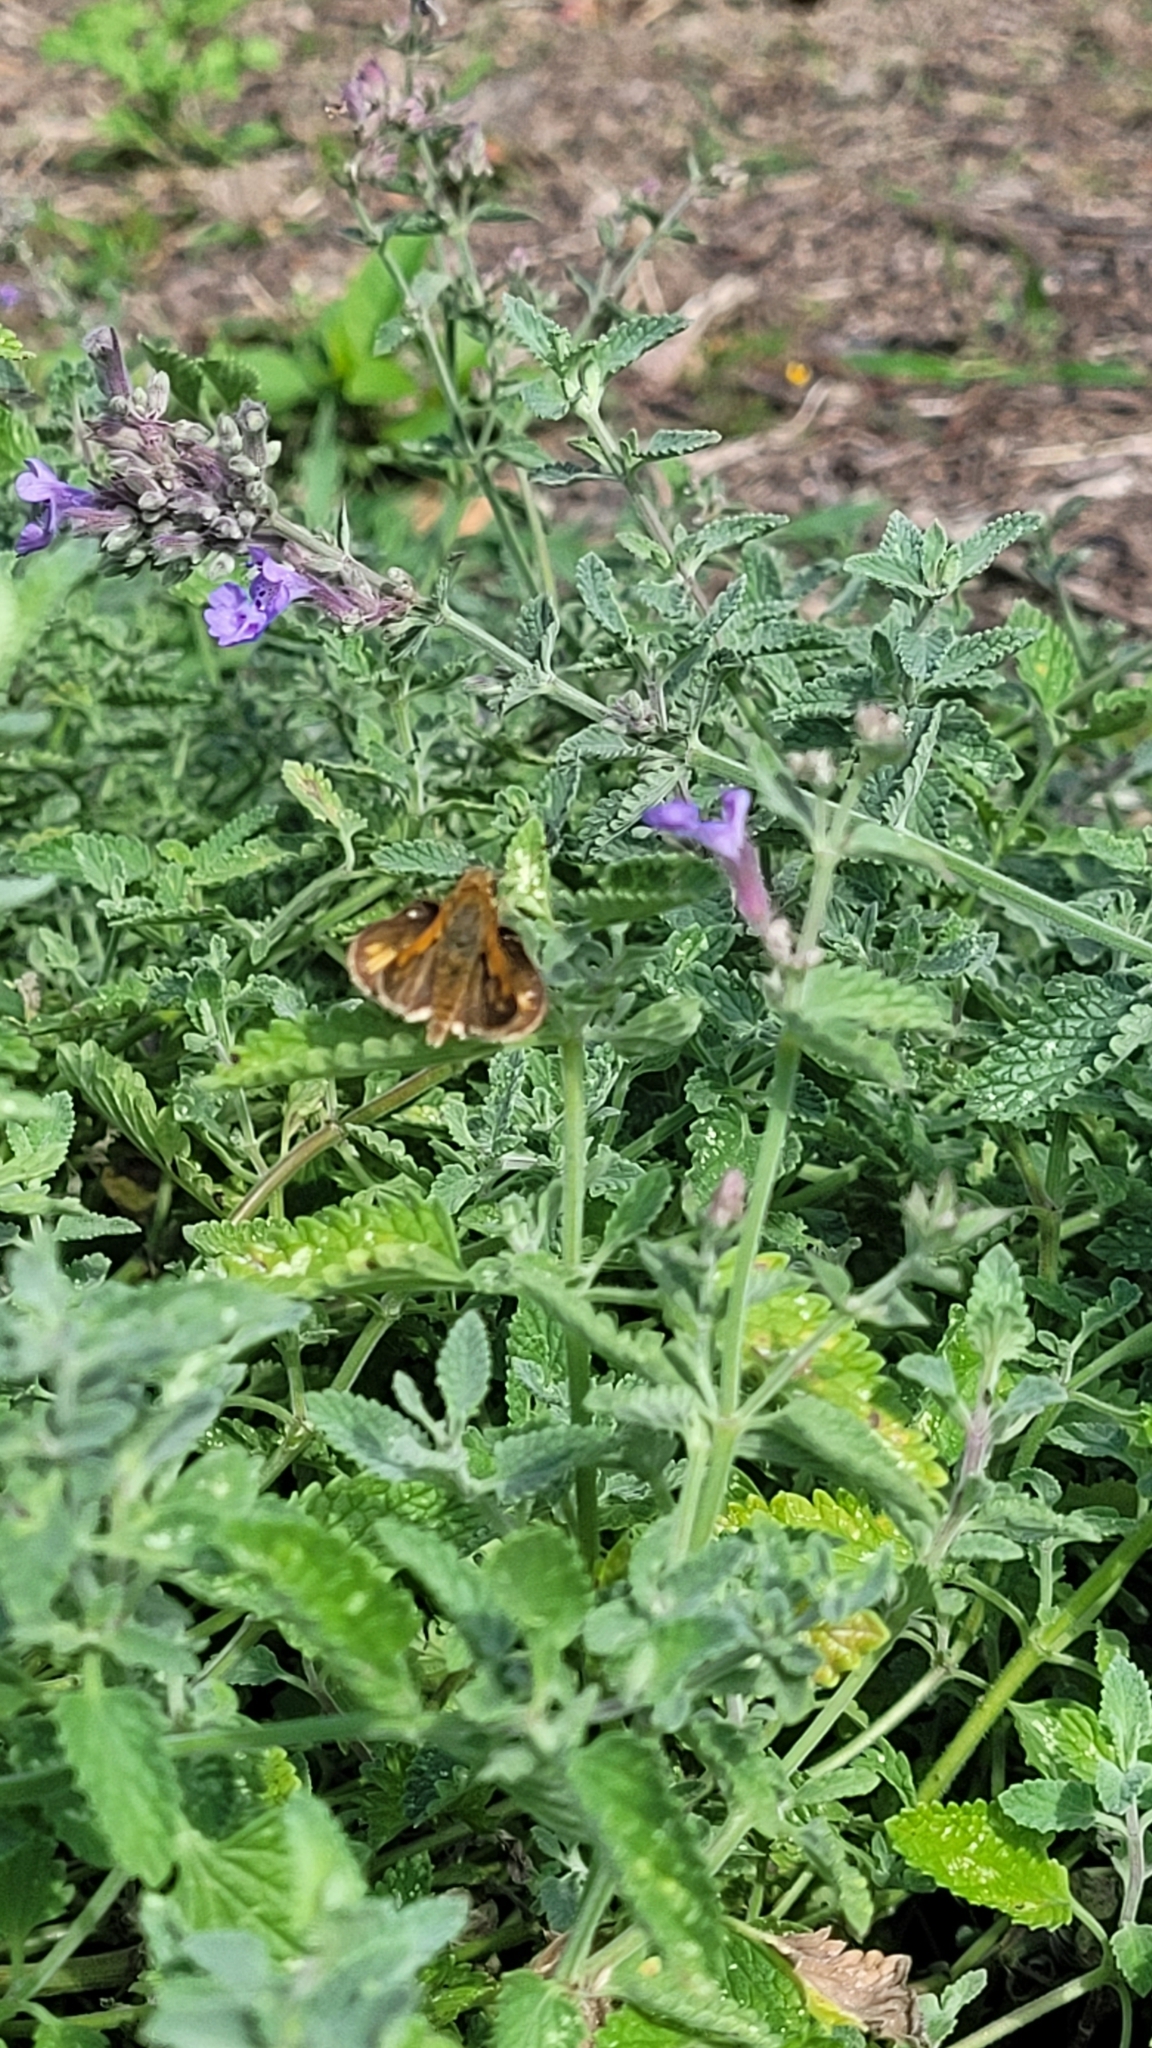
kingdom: Animalia
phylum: Arthropoda
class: Insecta
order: Lepidoptera
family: Hesperiidae
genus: Polites
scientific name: Polites coras
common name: Peck's skipper
